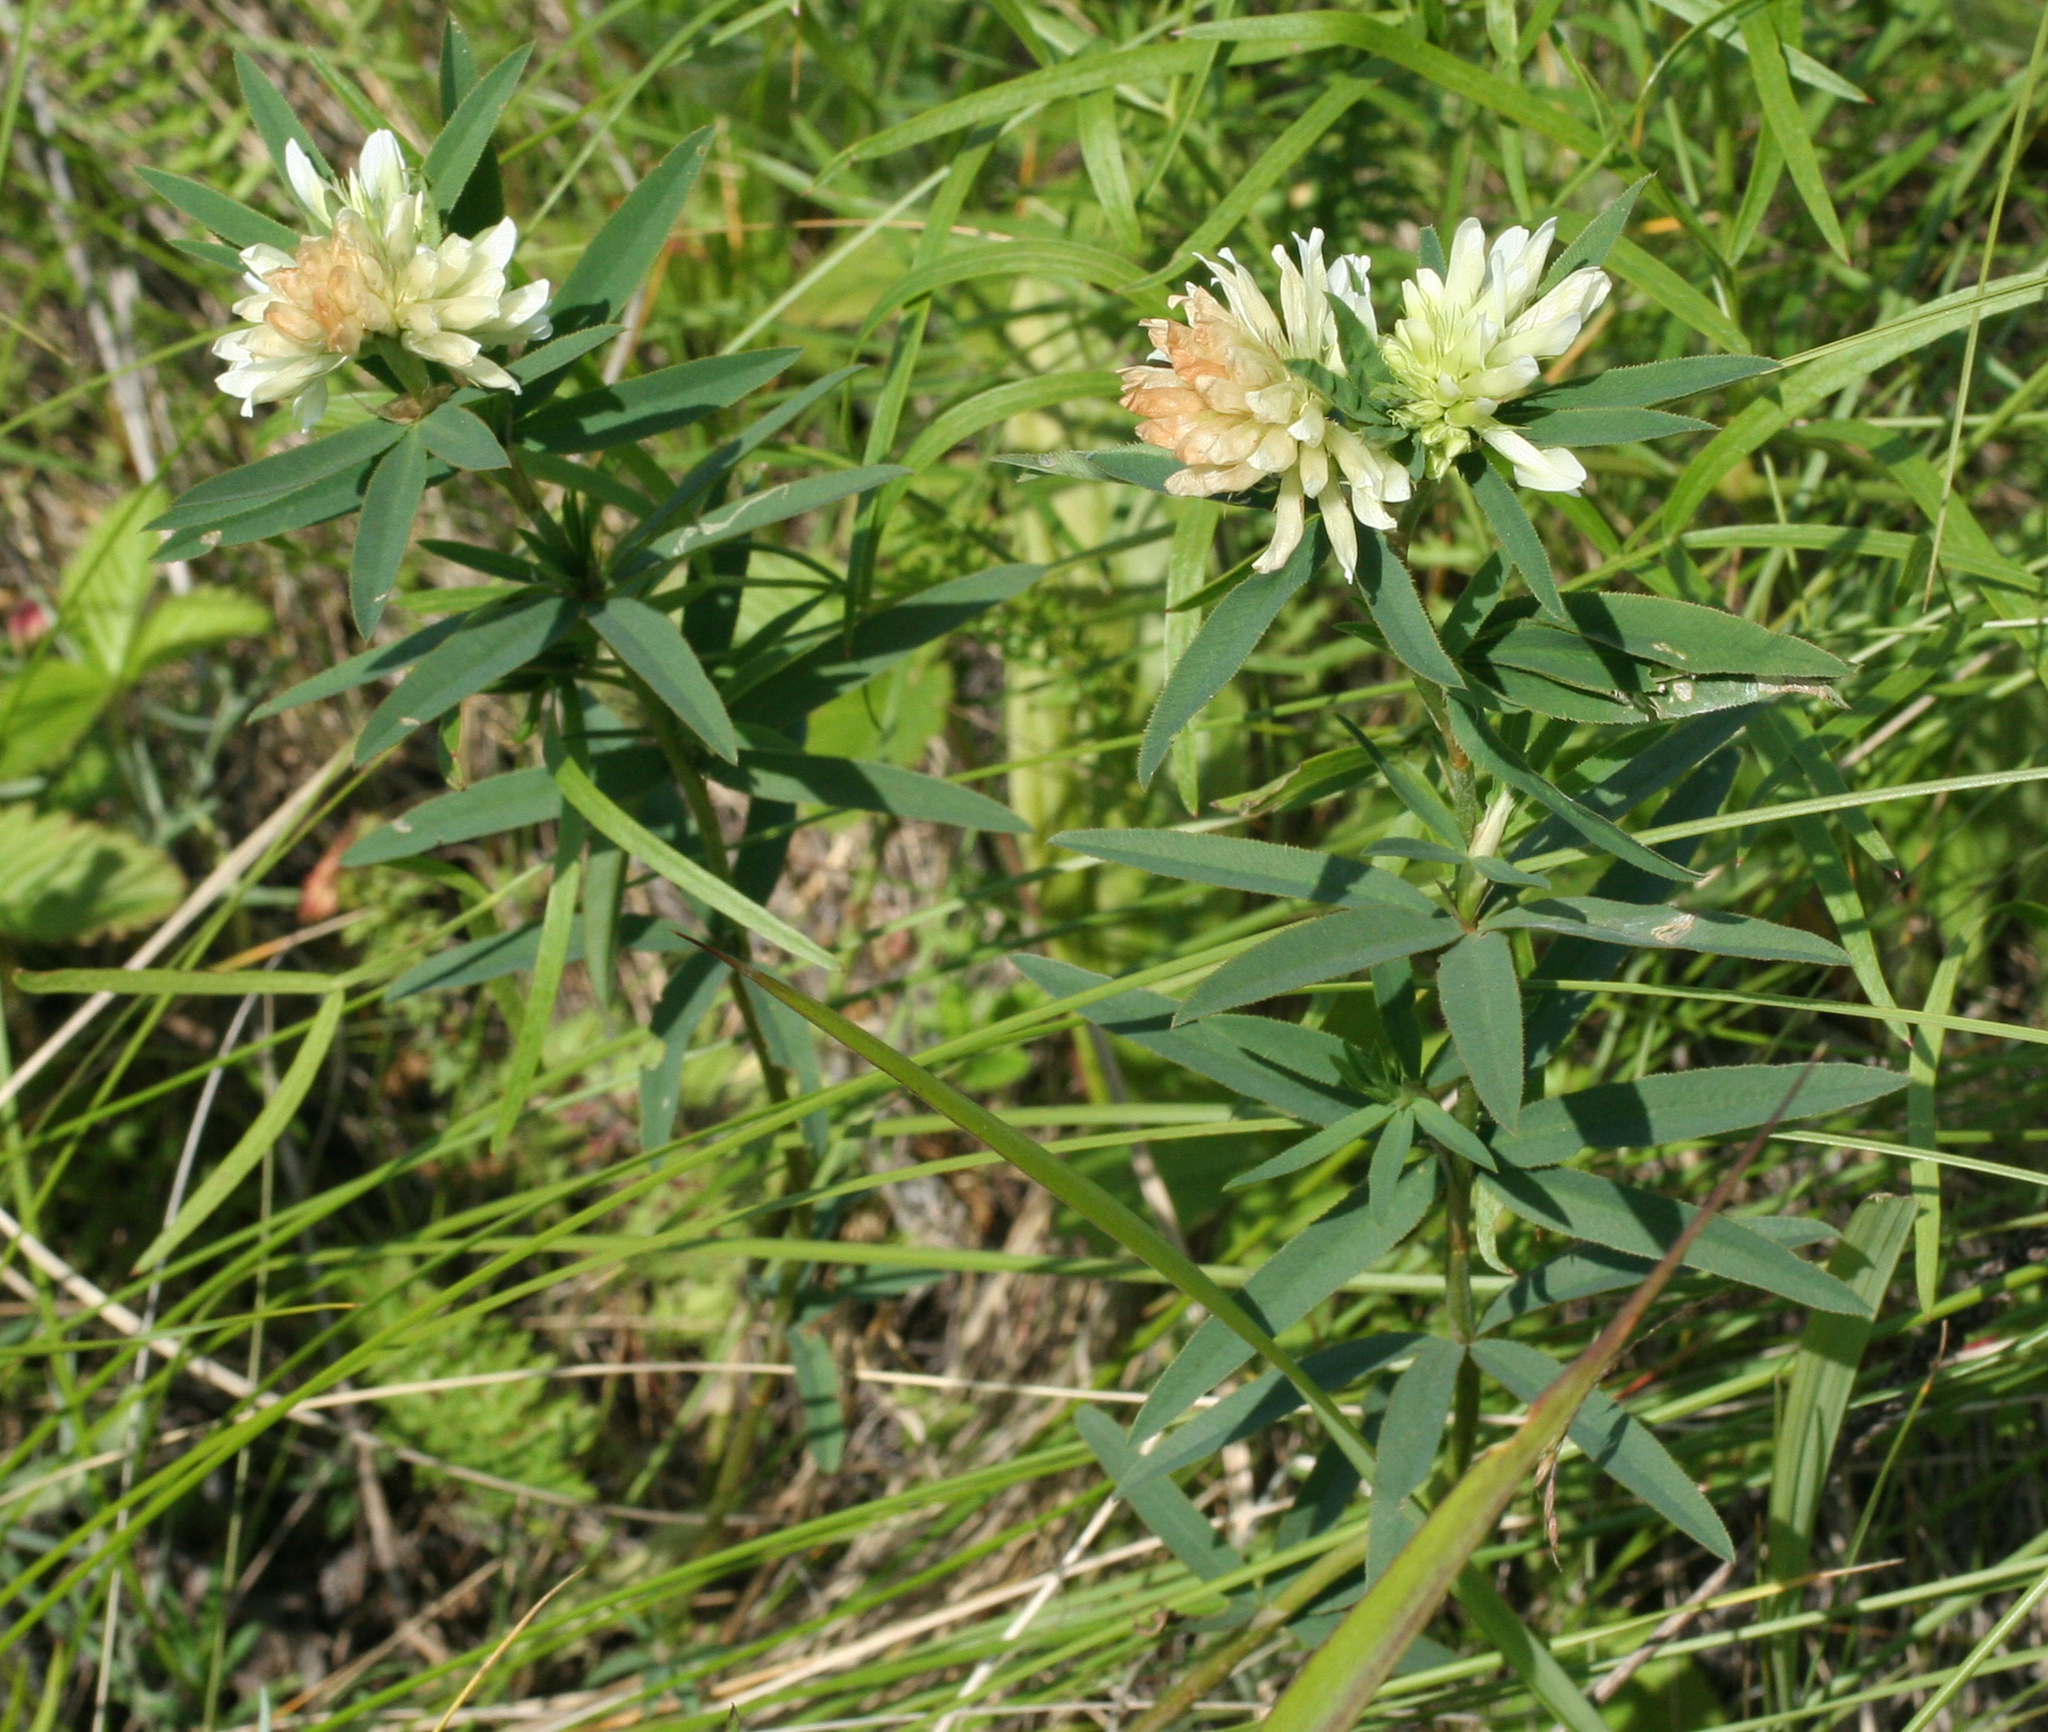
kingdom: Plantae
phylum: Tracheophyta
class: Magnoliopsida
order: Fabales
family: Fabaceae
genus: Trifolium
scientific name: Trifolium lupinaster
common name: Lupine clover
